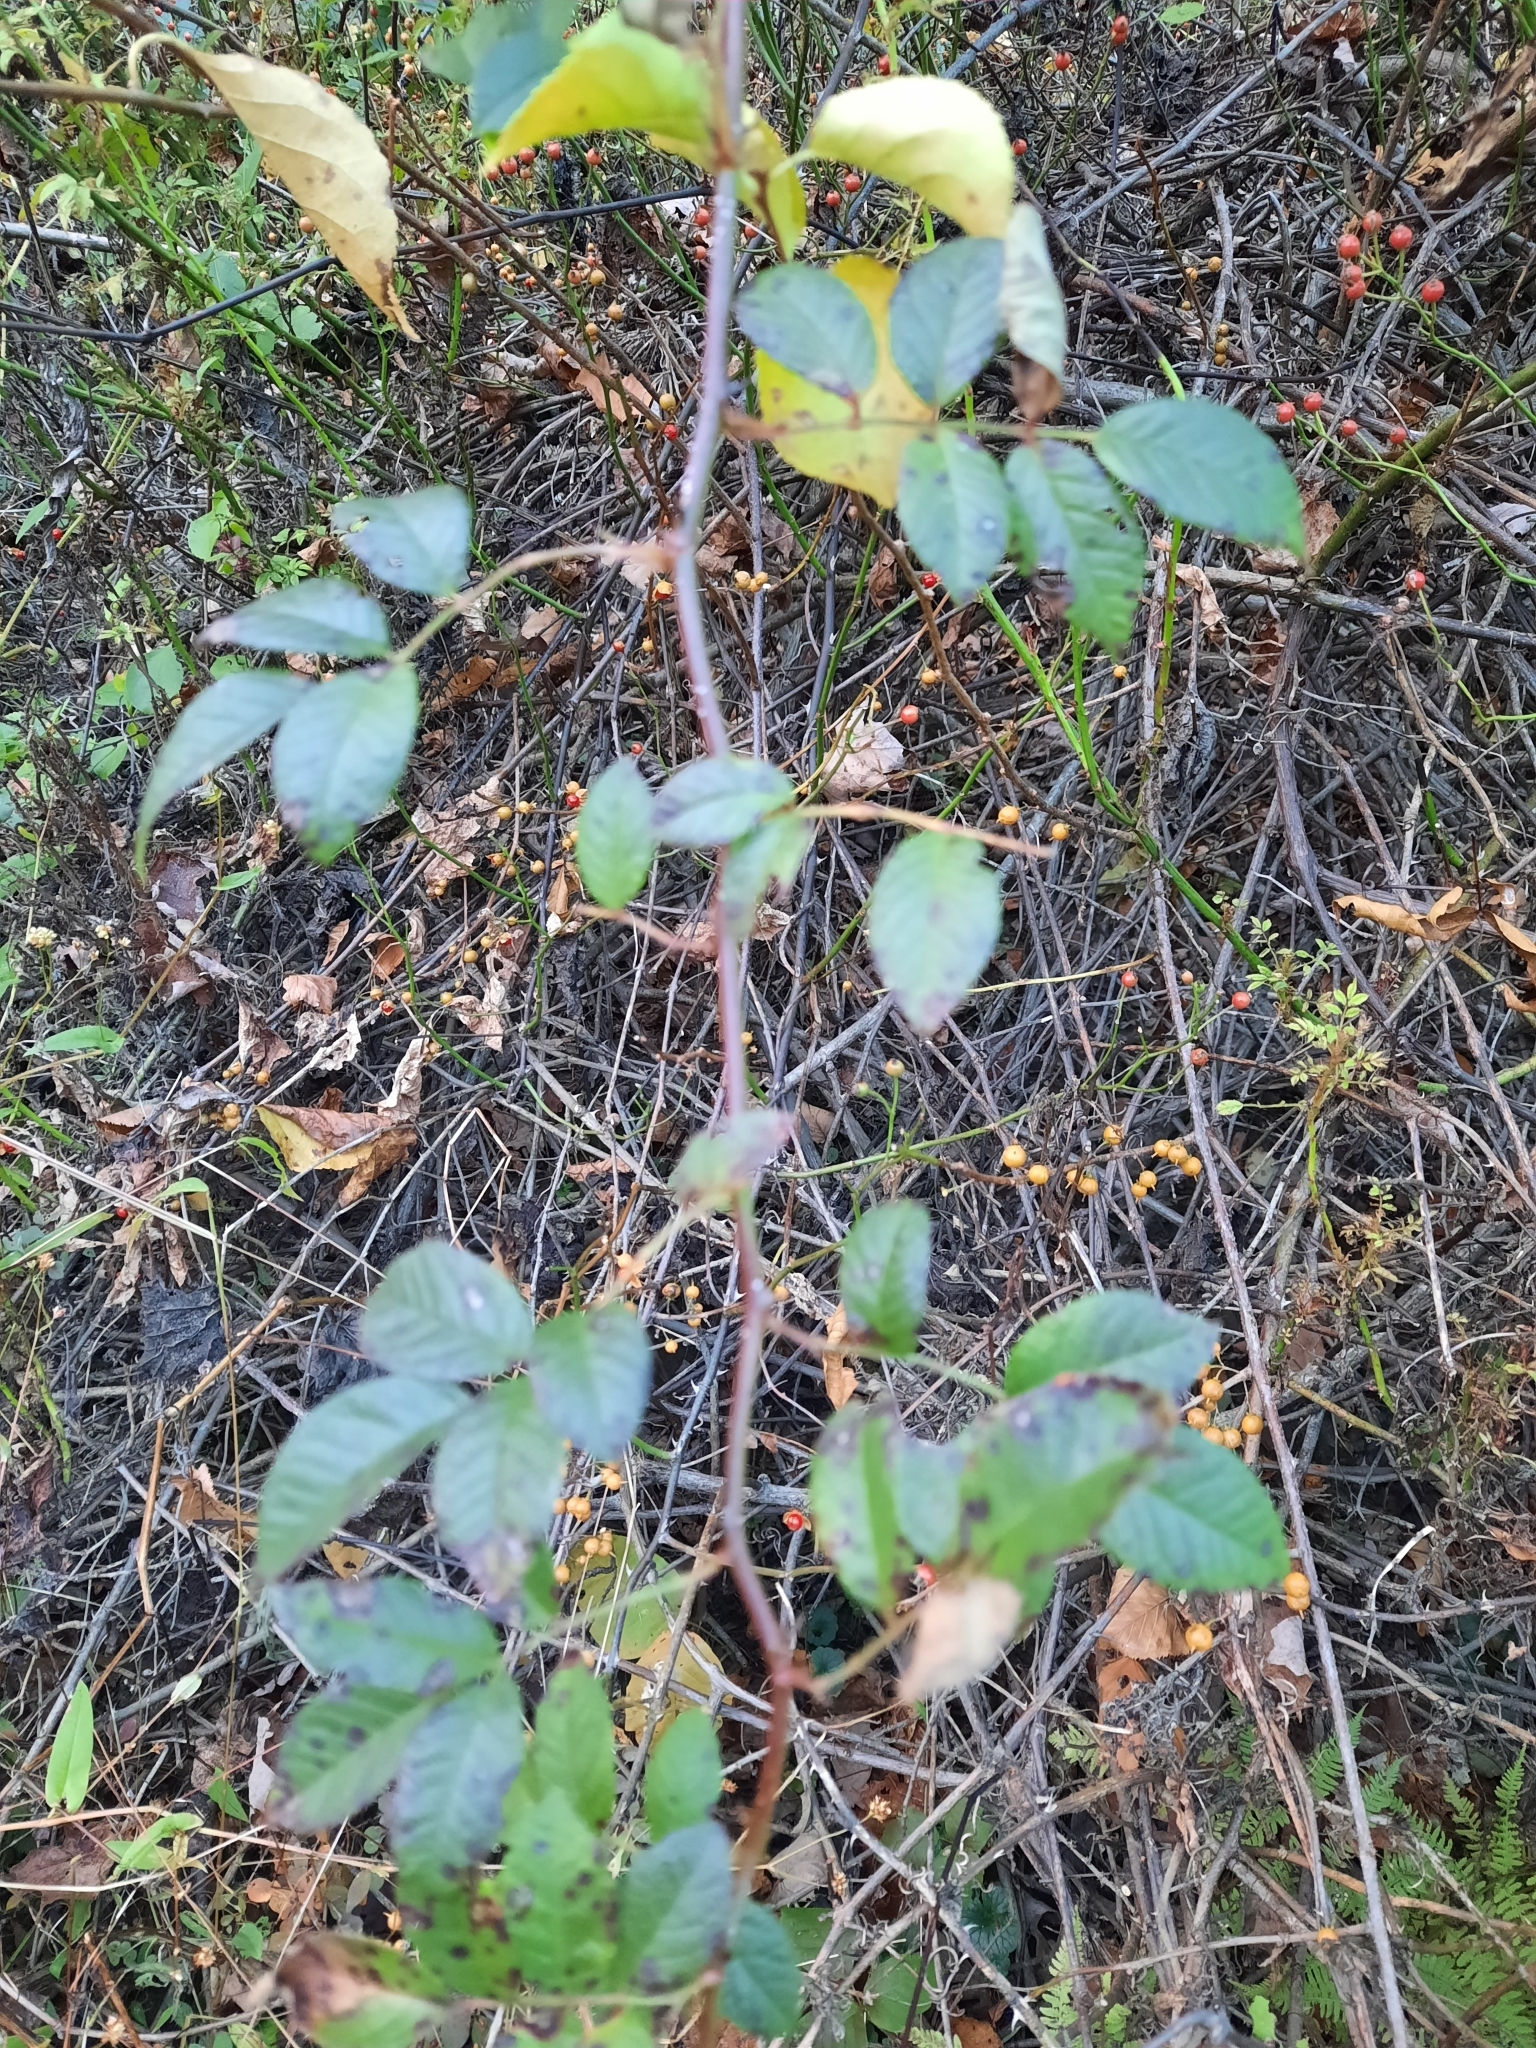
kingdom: Plantae
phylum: Tracheophyta
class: Magnoliopsida
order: Rosales
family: Rosaceae
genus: Rosa
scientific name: Rosa multiflora
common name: Multiflora rose
